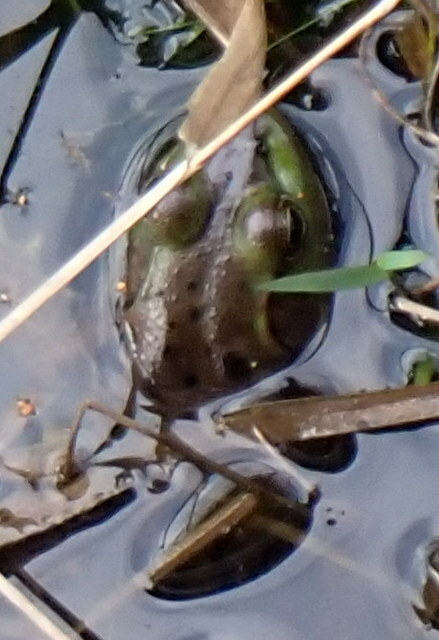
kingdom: Animalia
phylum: Chordata
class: Amphibia
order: Anura
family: Ranidae
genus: Lithobates
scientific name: Lithobates grylio
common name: Pig frog
